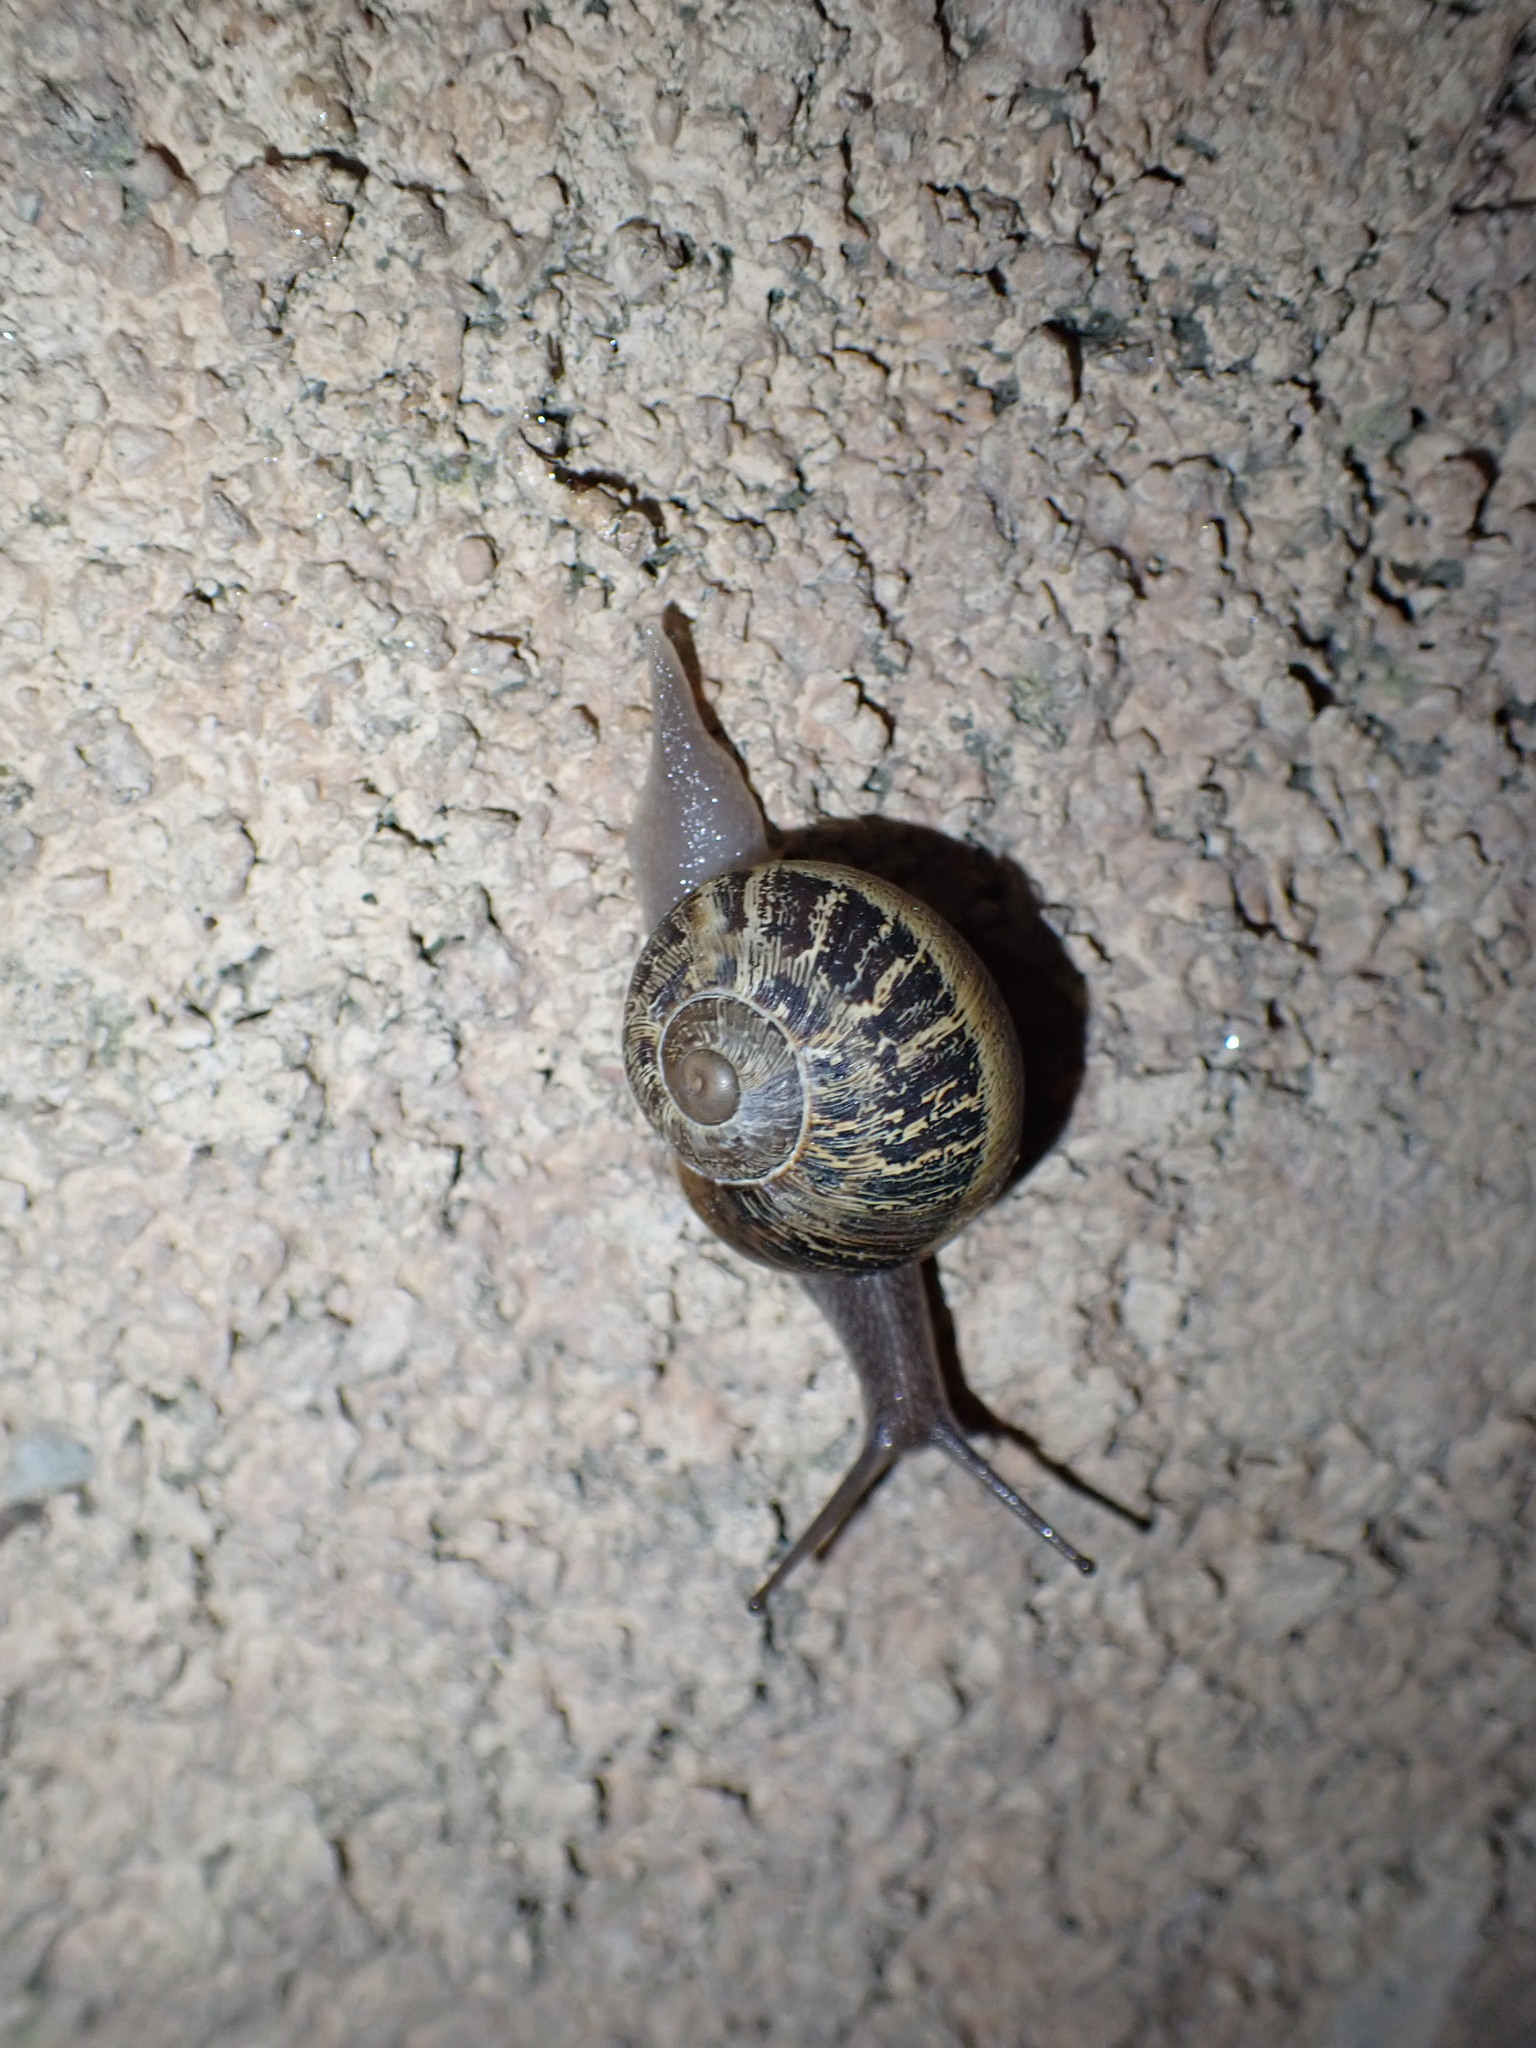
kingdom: Animalia
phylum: Mollusca
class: Gastropoda
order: Stylommatophora
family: Helicidae
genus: Cornu
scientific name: Cornu aspersum
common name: Brown garden snail
